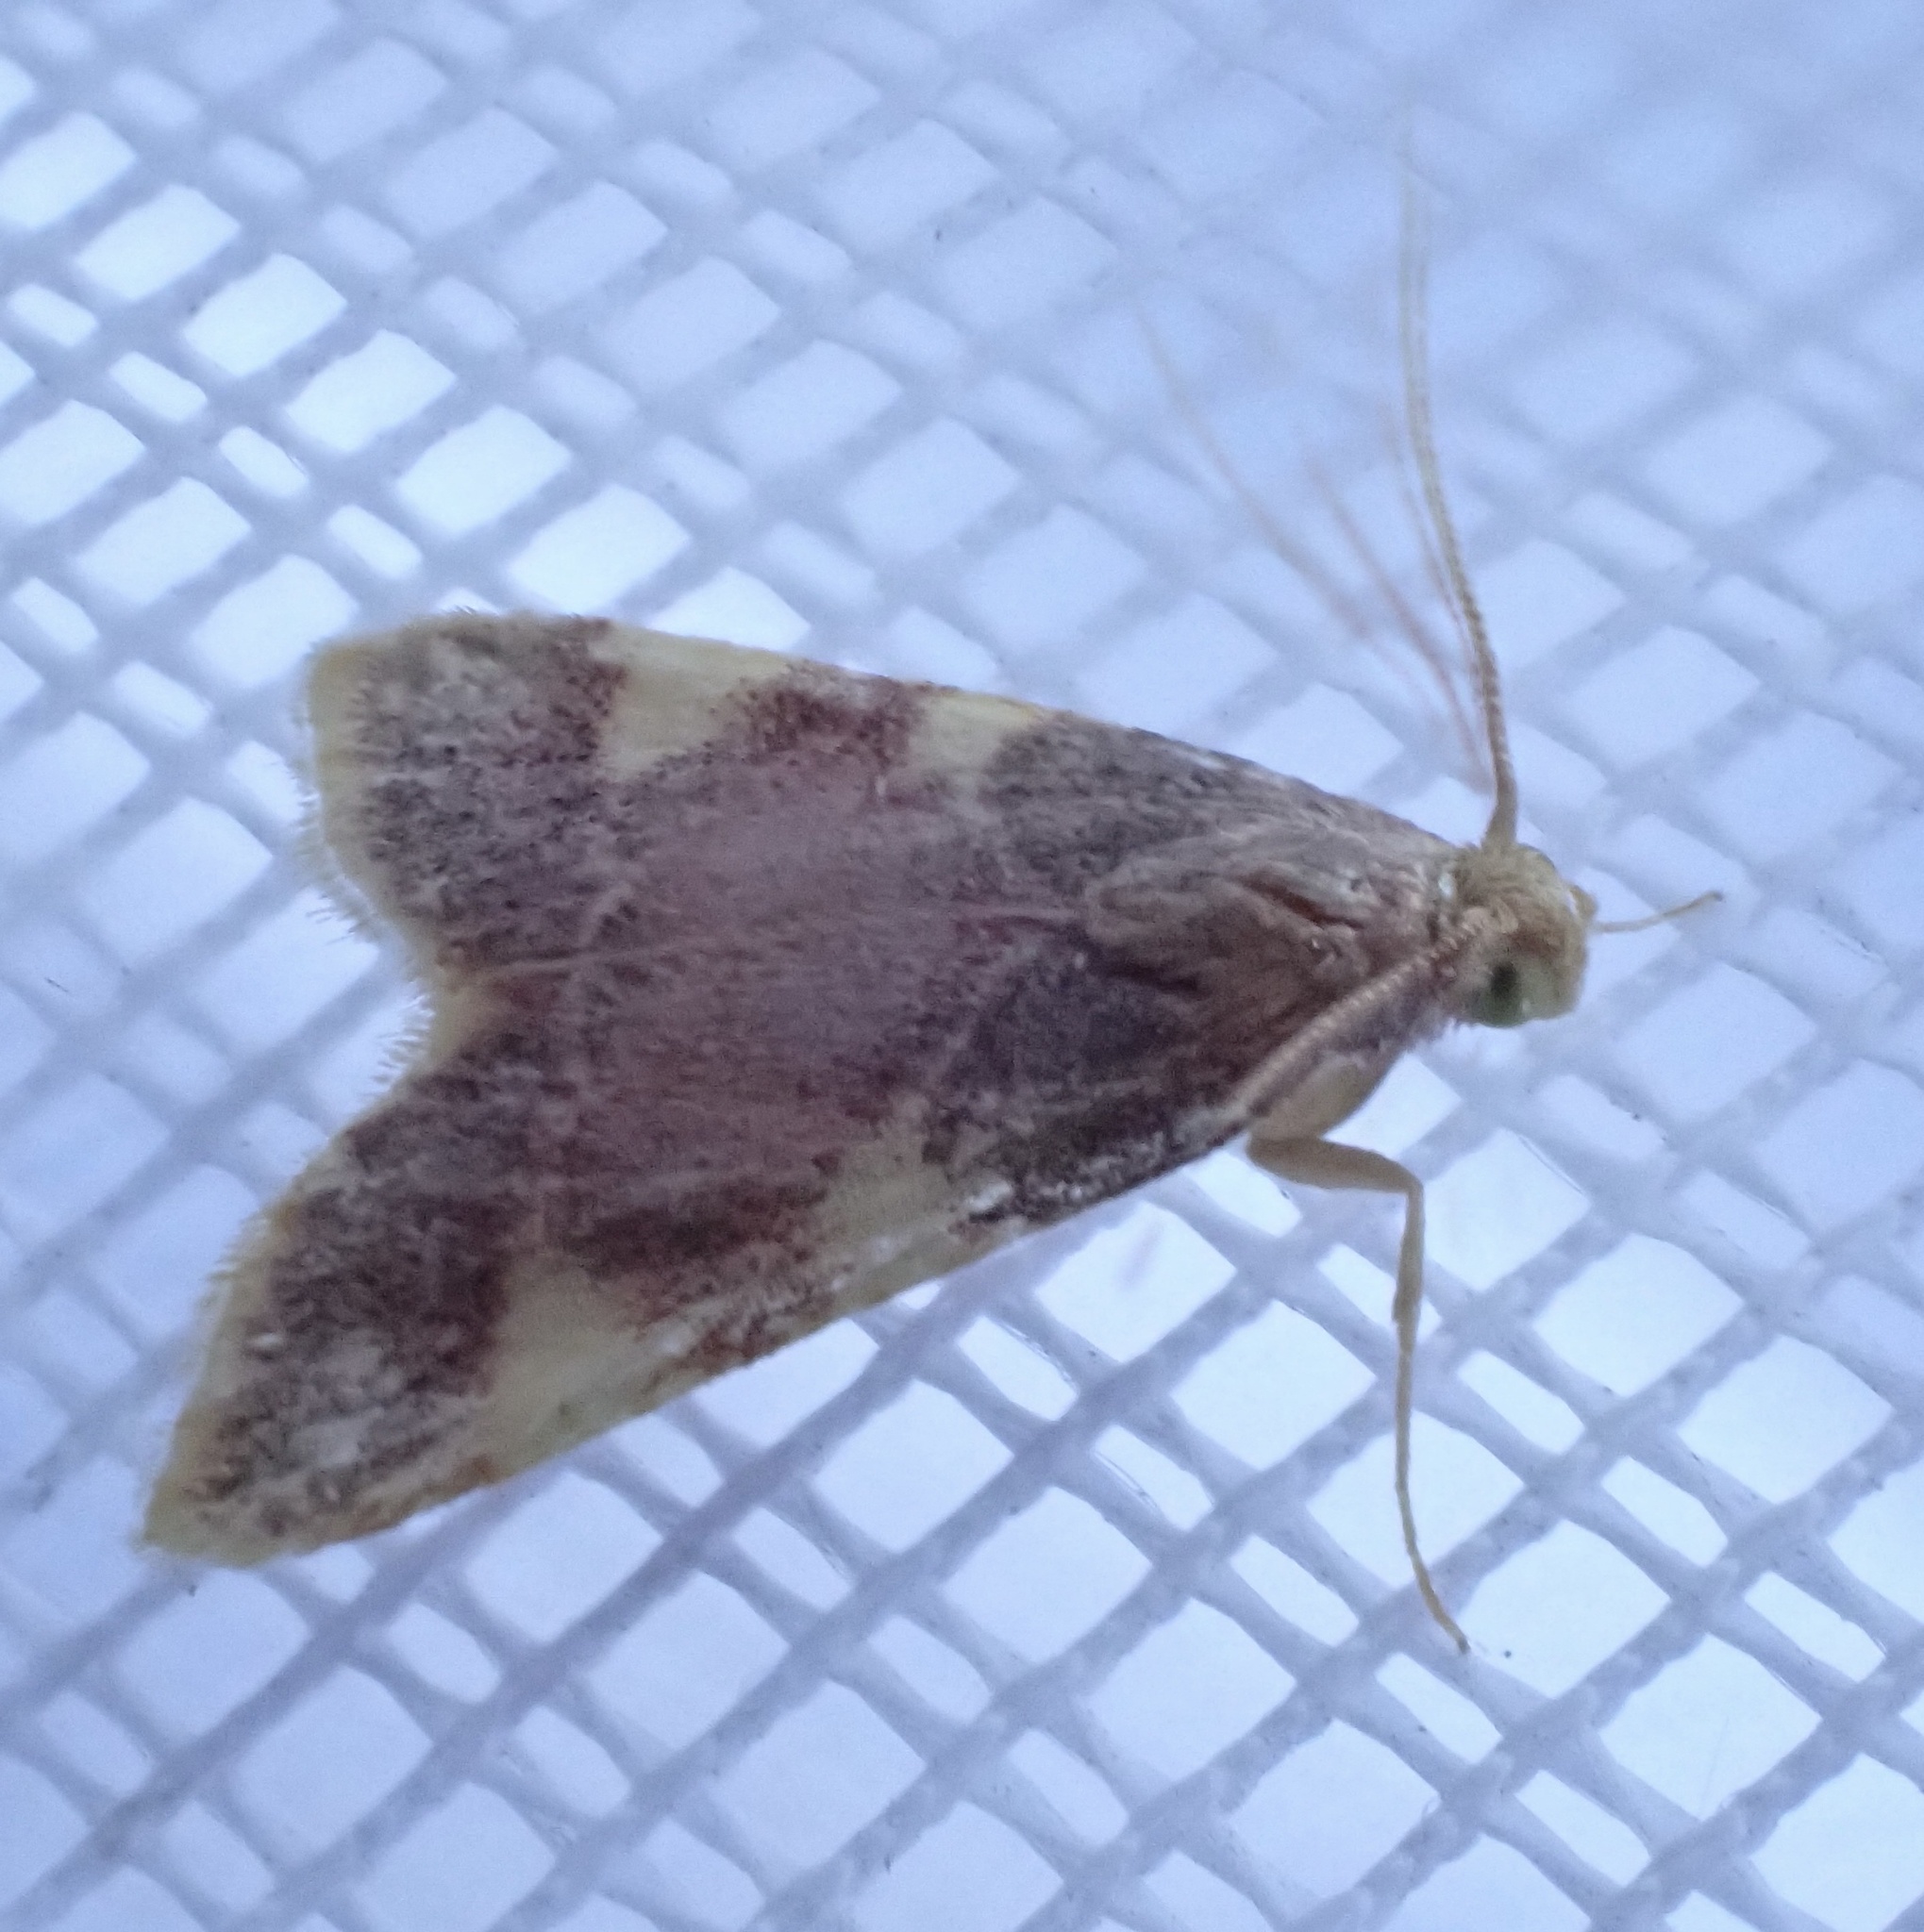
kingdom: Animalia
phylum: Arthropoda
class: Insecta
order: Lepidoptera
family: Pyralidae
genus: Hypsopygia
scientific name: Hypsopygia costalis
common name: Gold triangle
